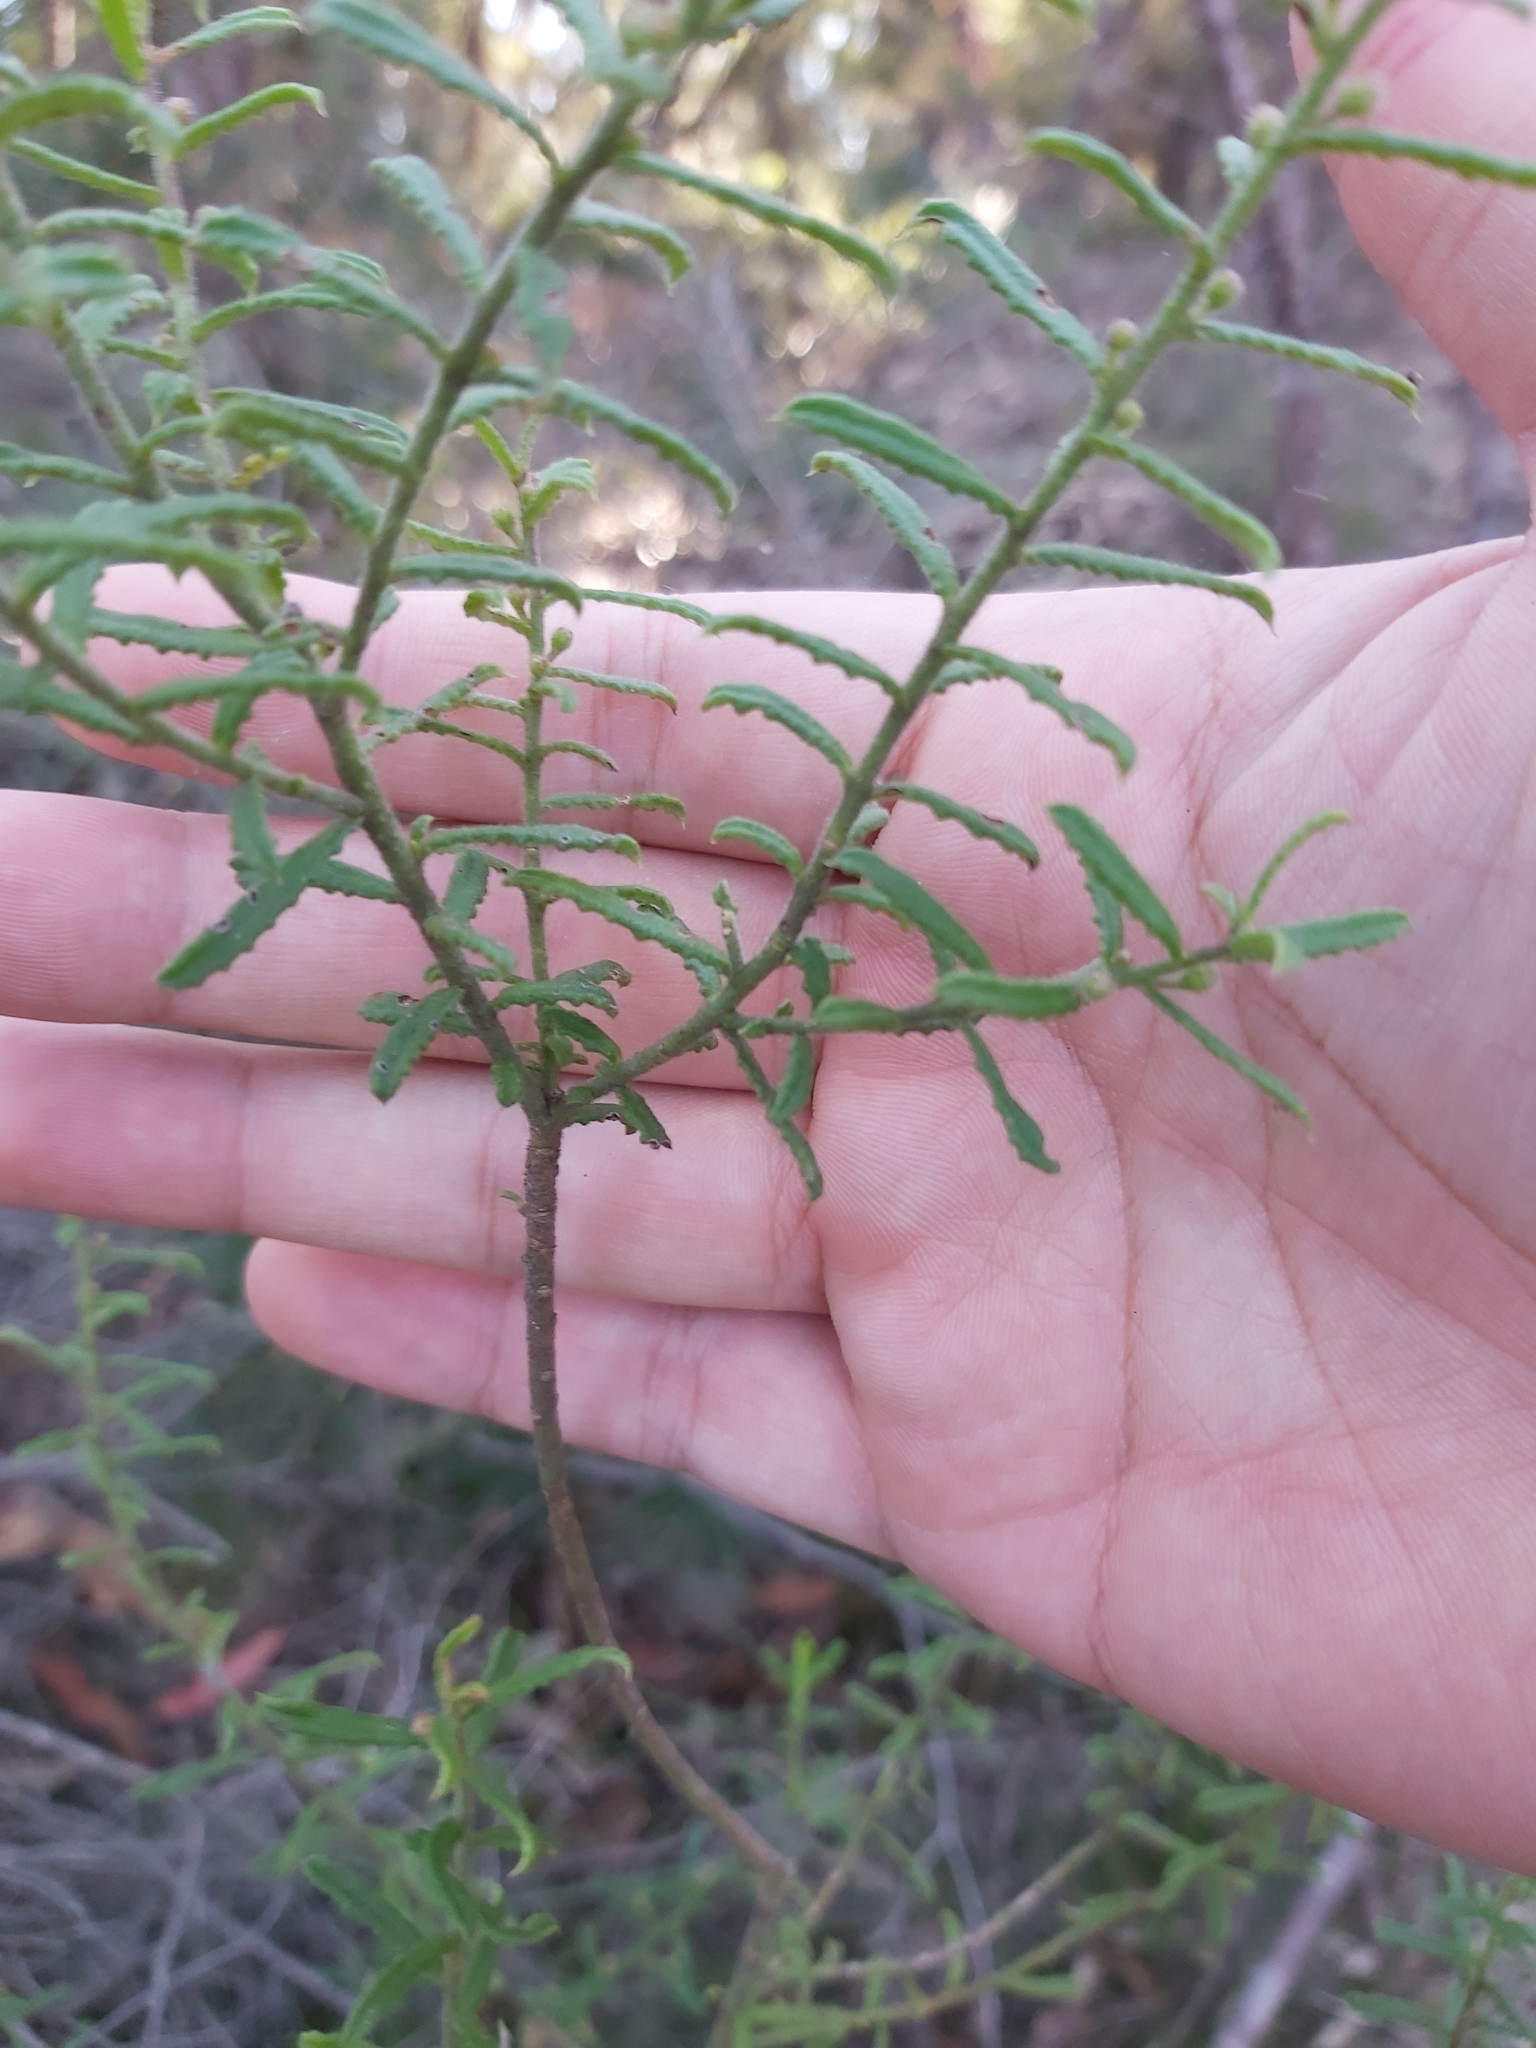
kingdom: Plantae
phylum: Tracheophyta
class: Magnoliopsida
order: Sapindales
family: Rutaceae
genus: Philotheca
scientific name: Philotheca hispidula
